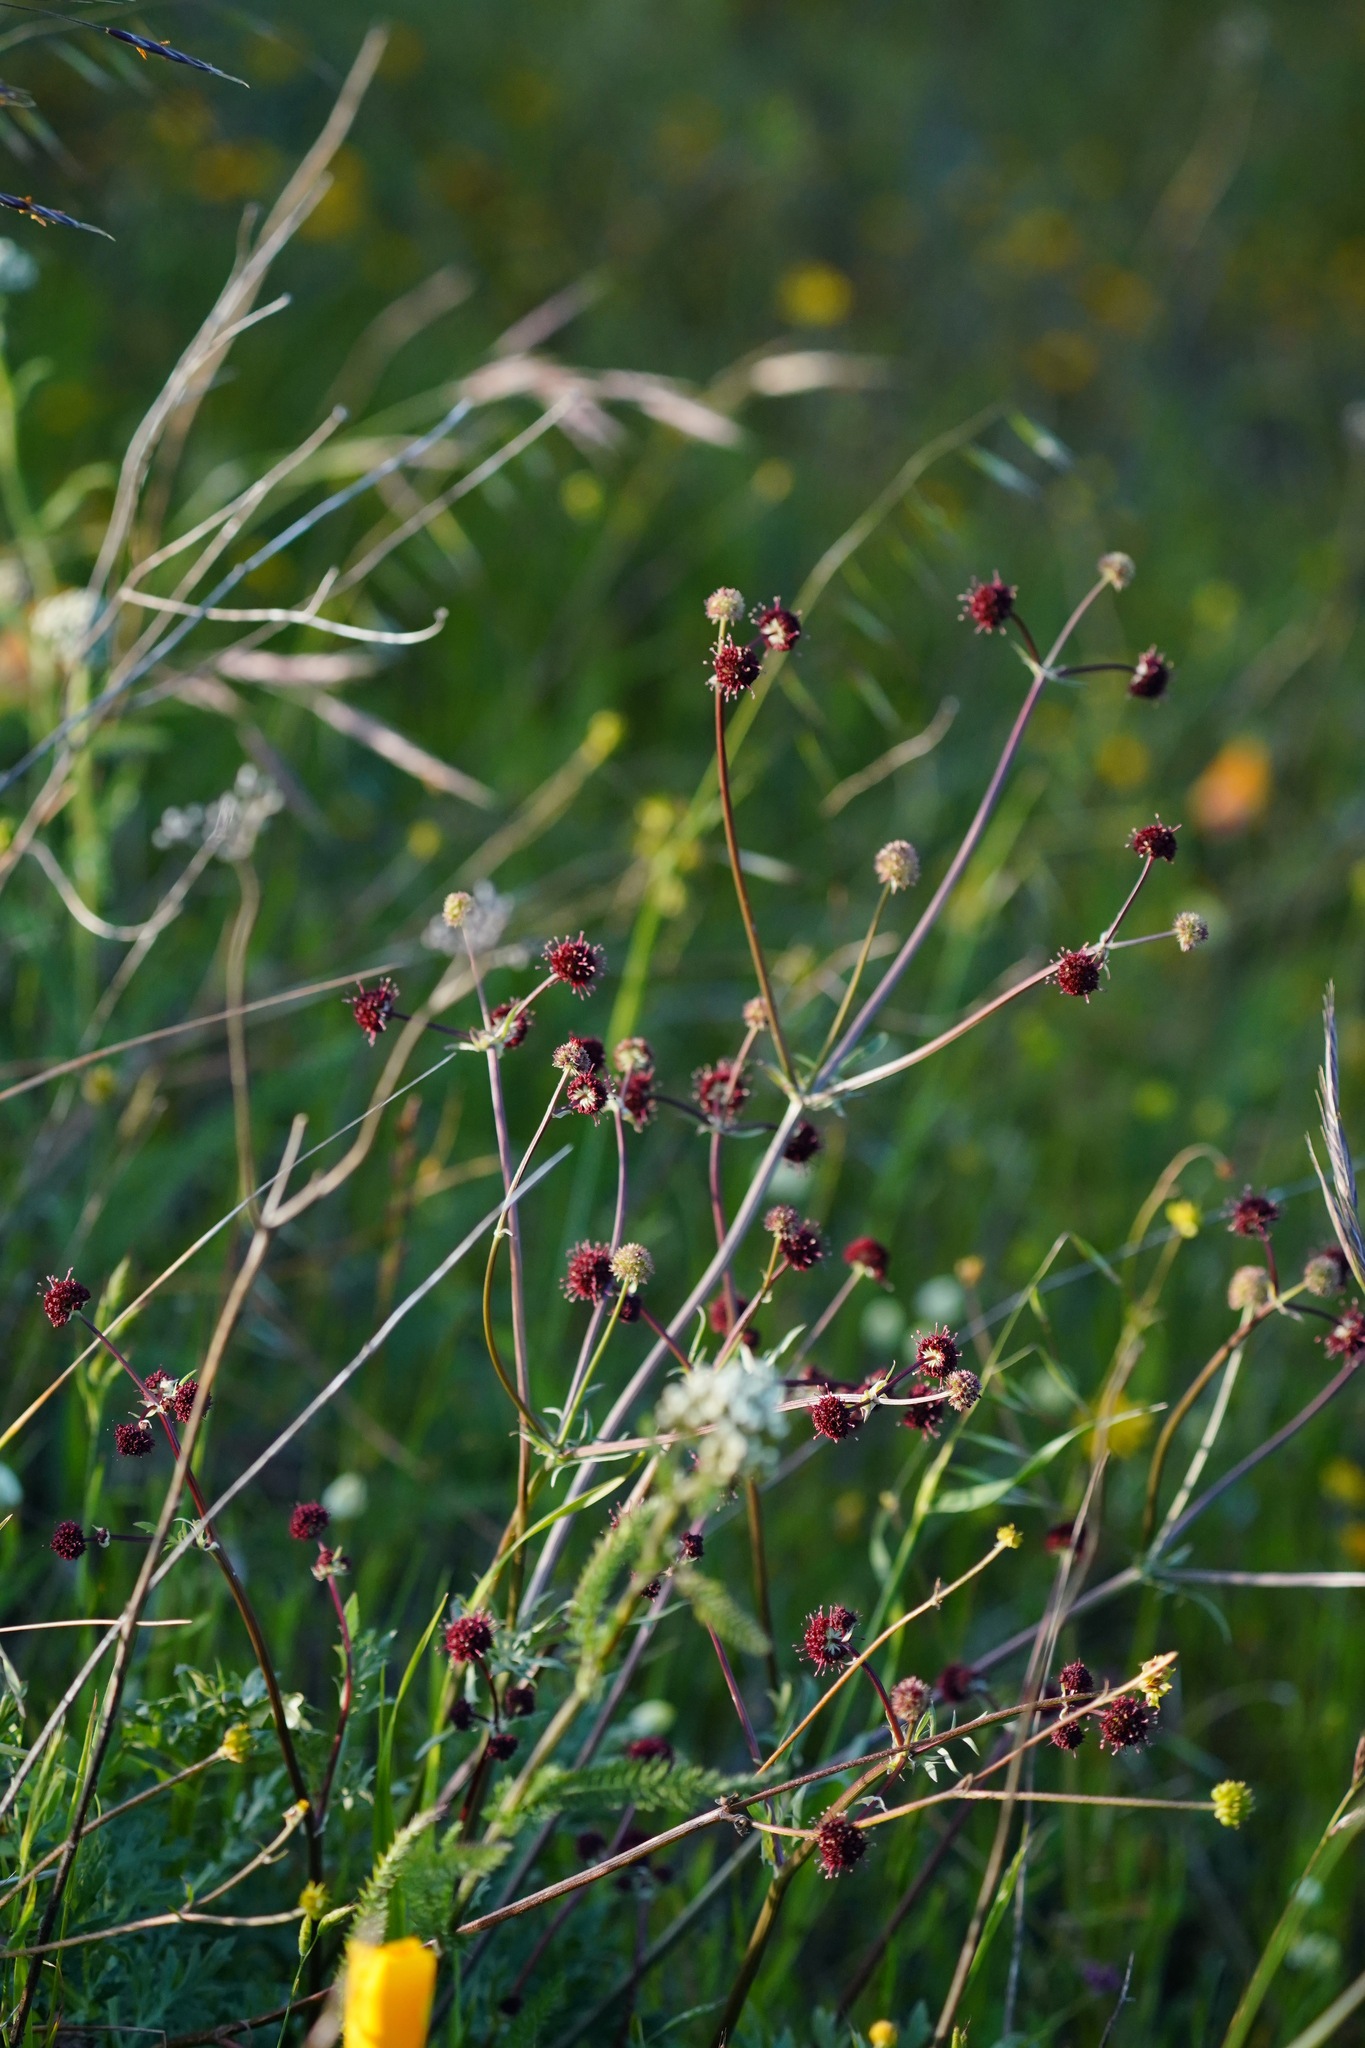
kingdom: Plantae
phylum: Tracheophyta
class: Magnoliopsida
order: Apiales
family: Apiaceae
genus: Sanicula
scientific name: Sanicula bipinnatifida
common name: Shoe-buttons
